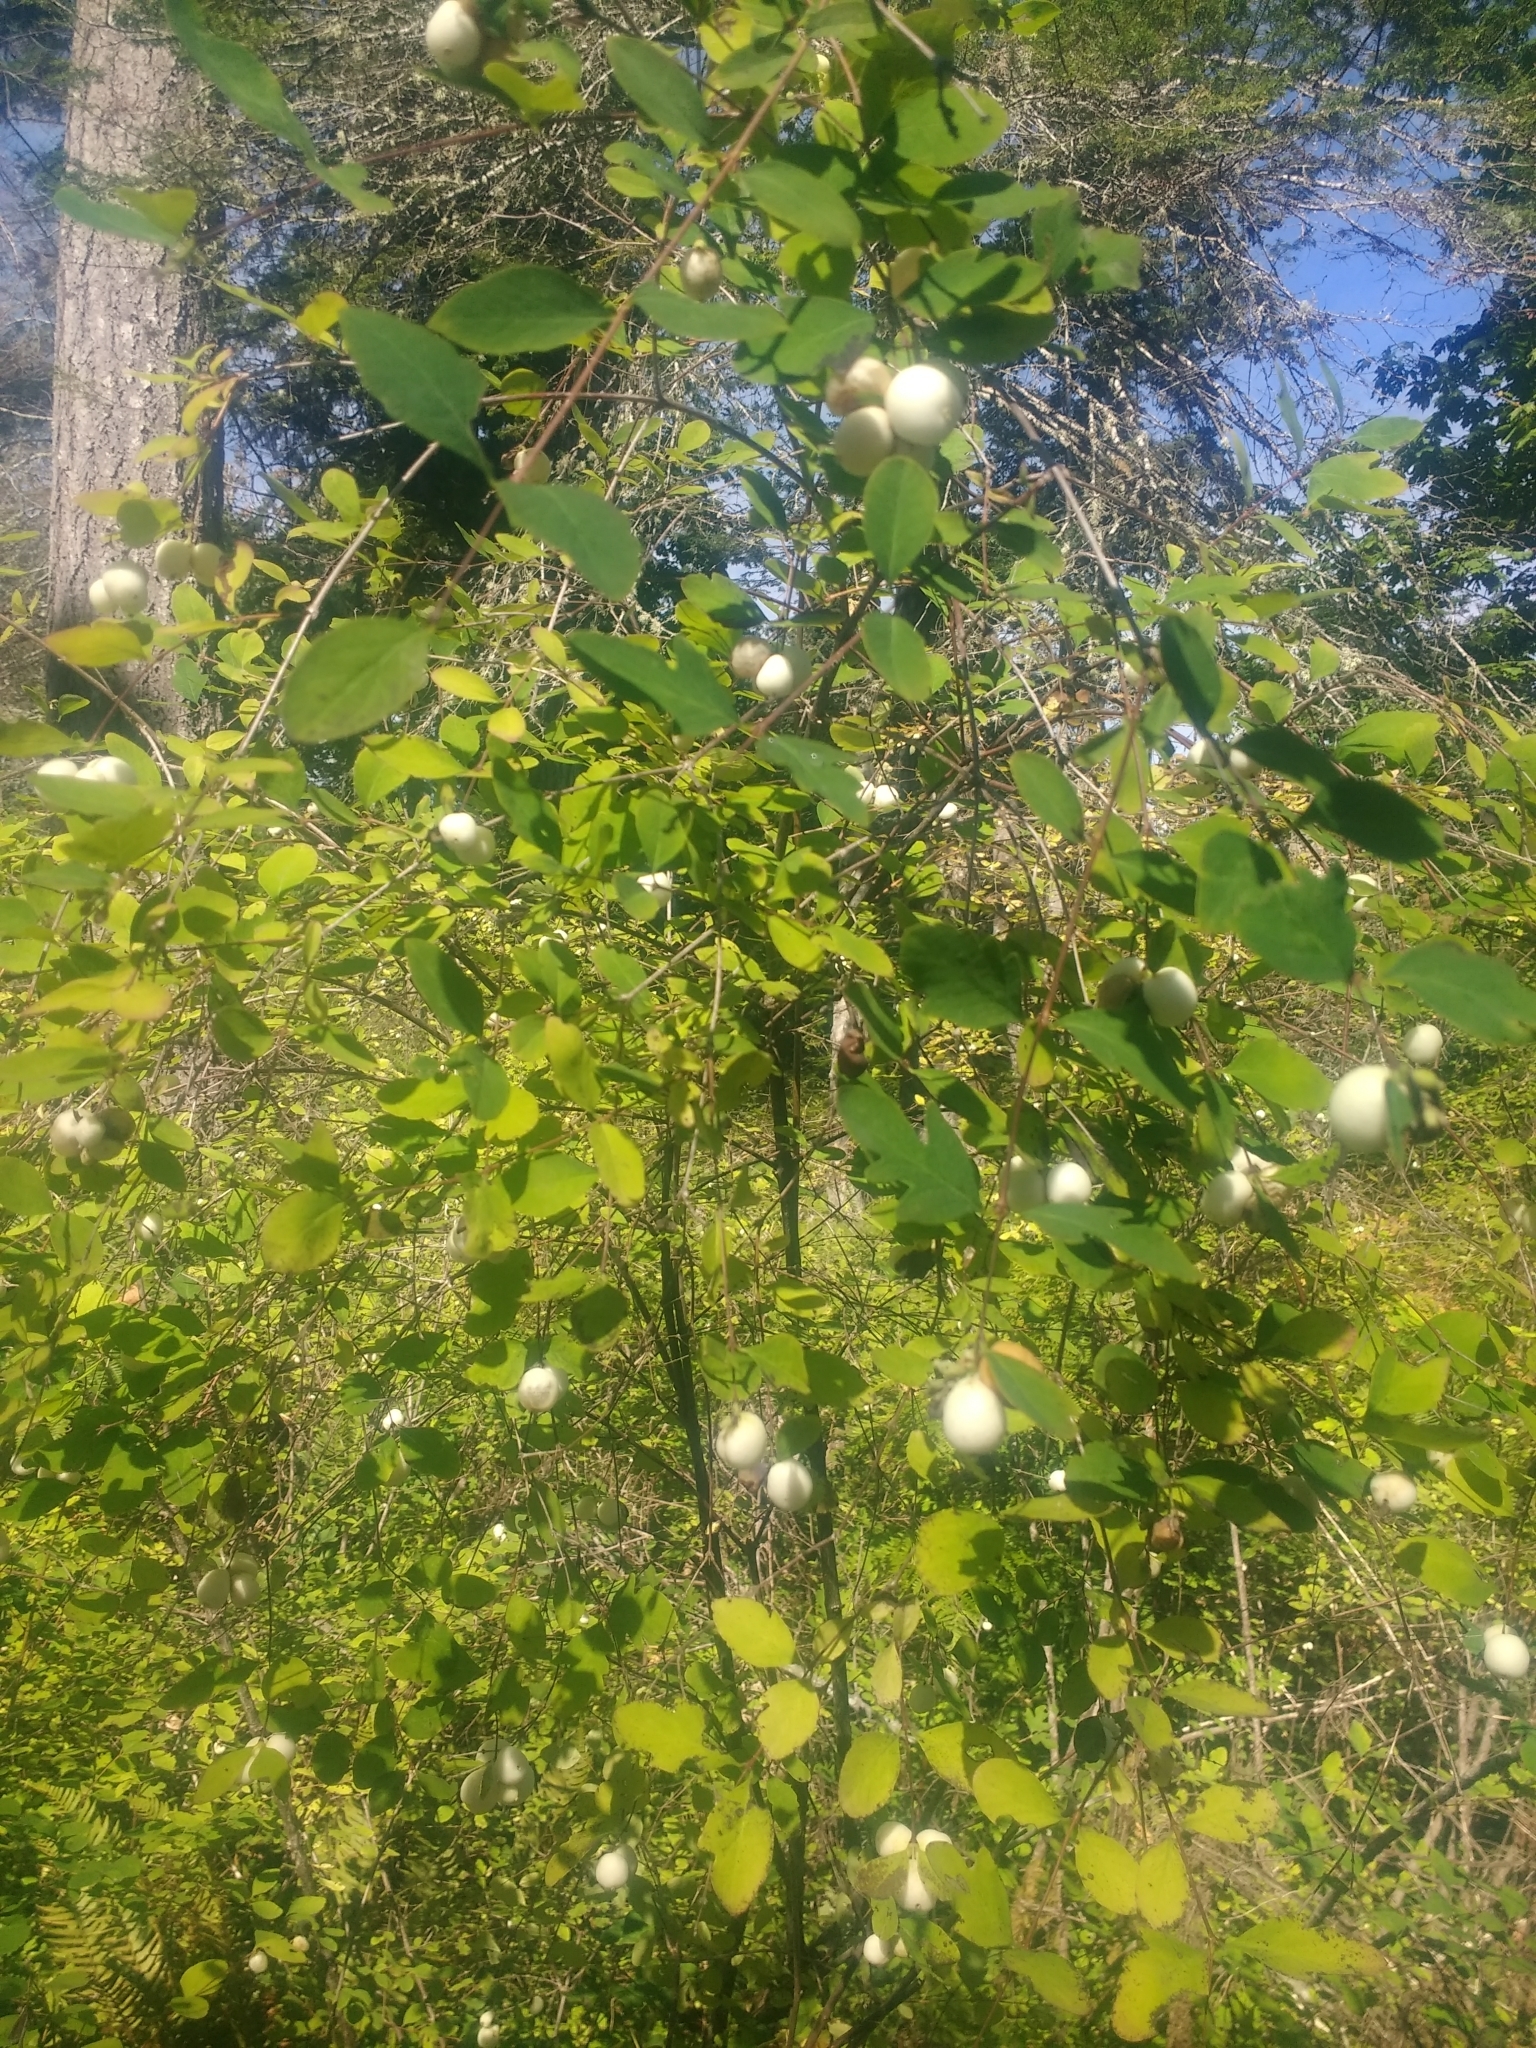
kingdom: Plantae
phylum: Tracheophyta
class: Magnoliopsida
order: Dipsacales
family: Caprifoliaceae
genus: Symphoricarpos
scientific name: Symphoricarpos albus
